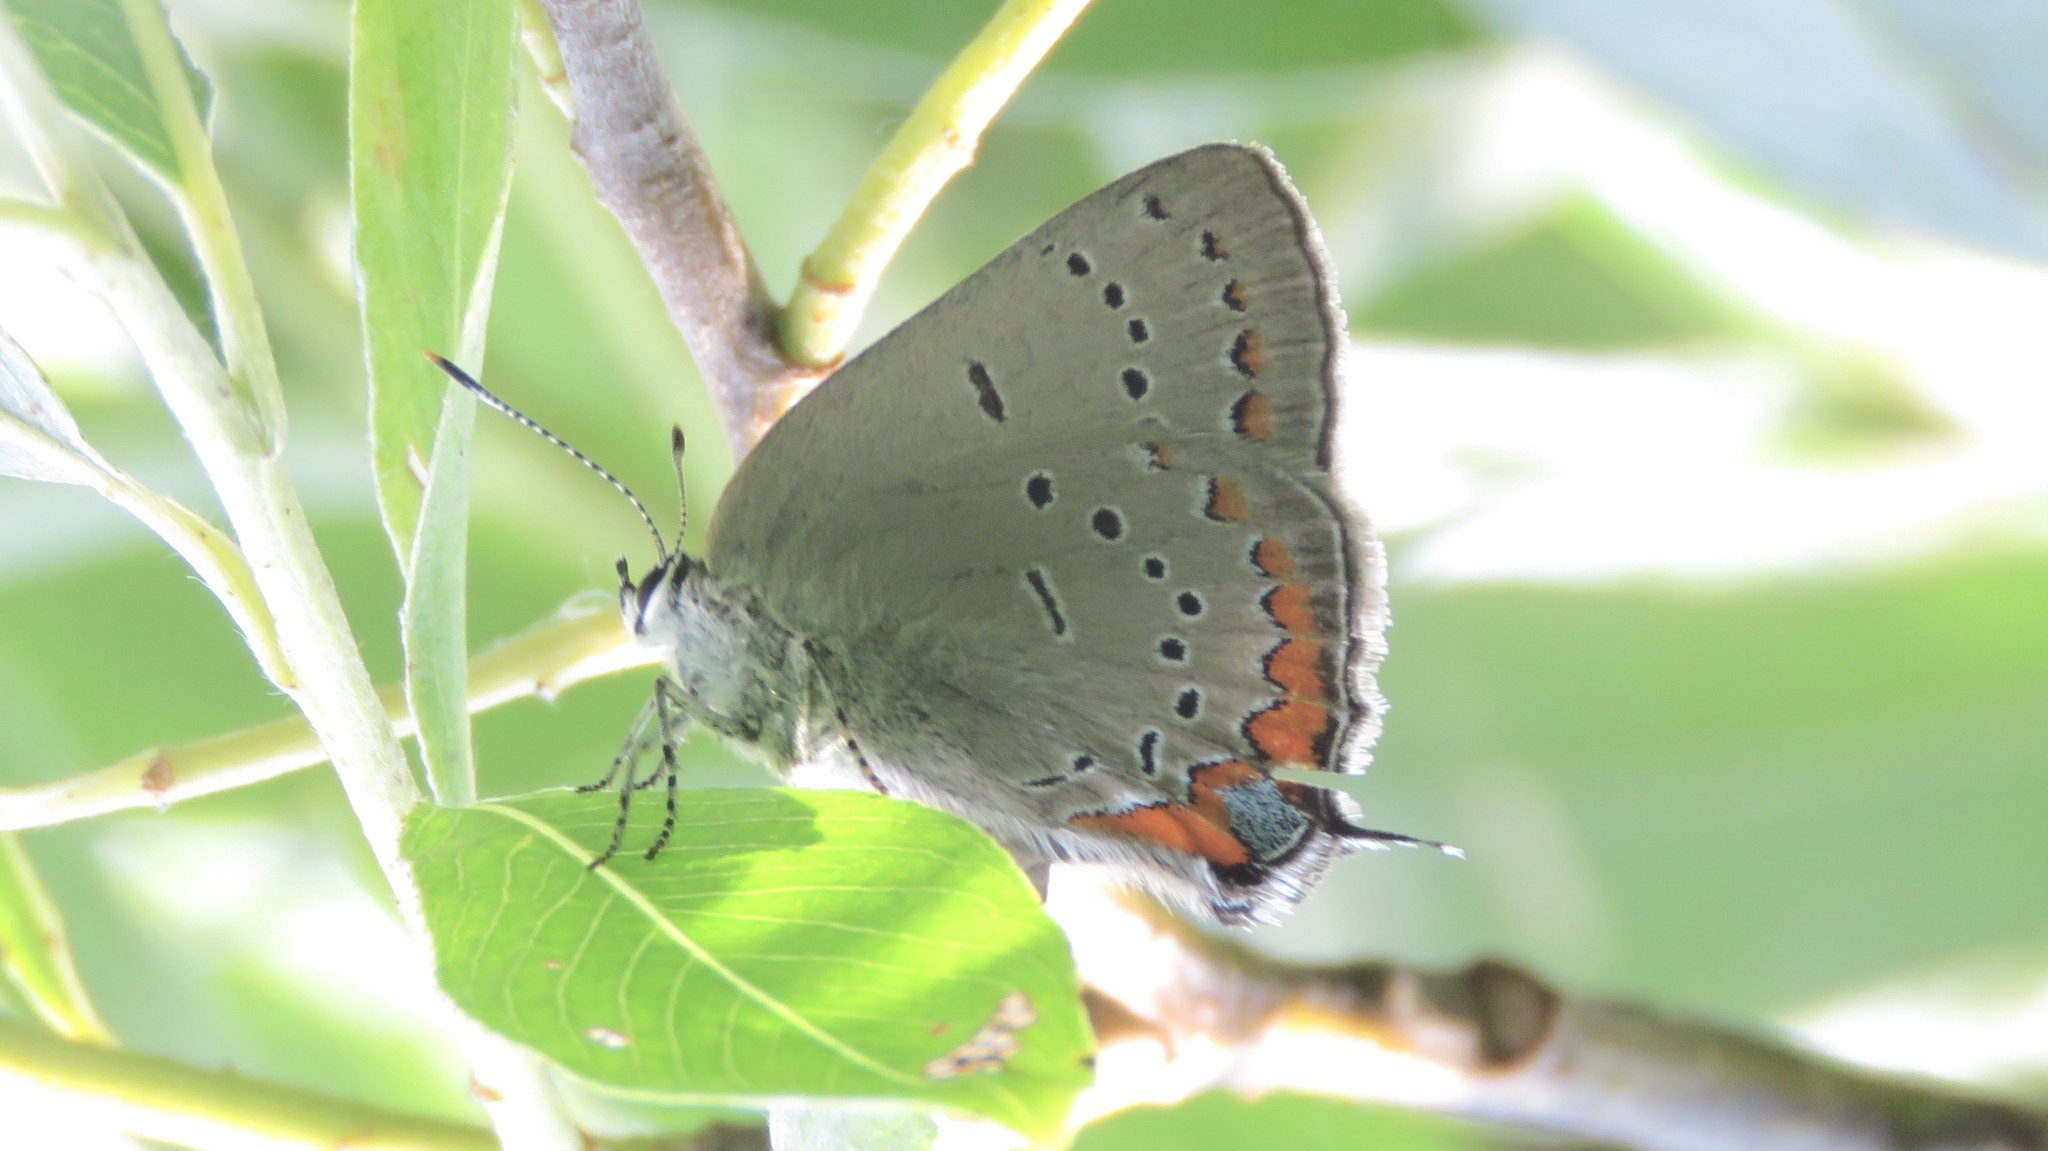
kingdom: Animalia
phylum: Arthropoda
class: Insecta
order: Lepidoptera
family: Lycaenidae
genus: Strymon
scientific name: Strymon acadica
